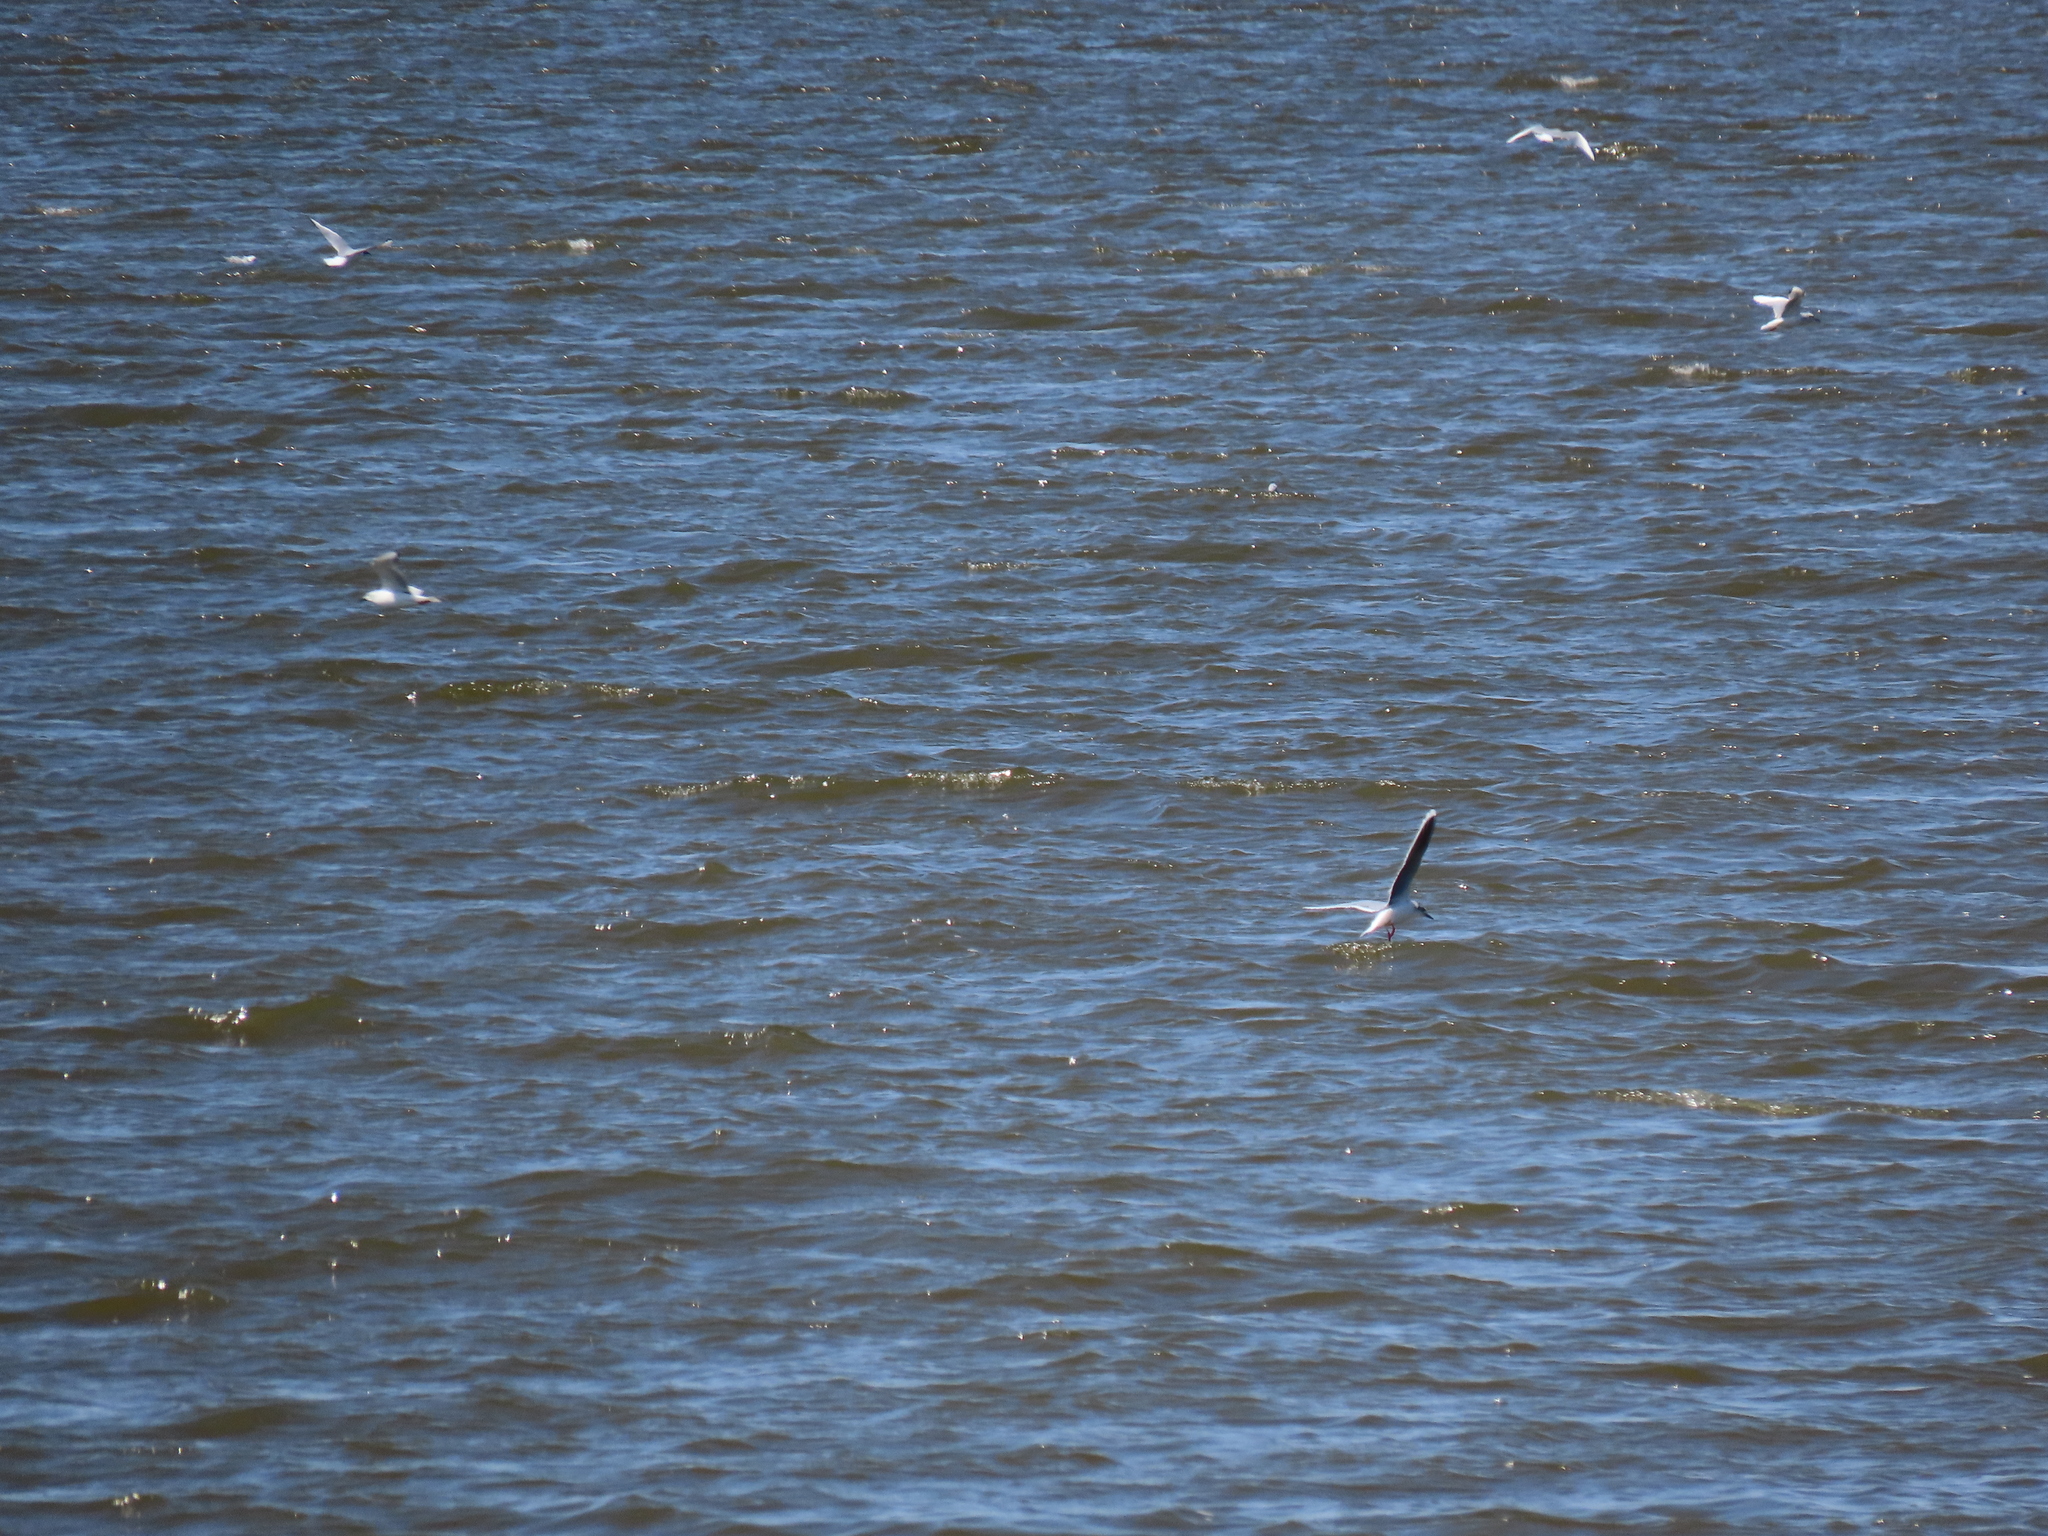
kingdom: Animalia
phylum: Chordata
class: Aves
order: Charadriiformes
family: Laridae
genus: Hydrocoloeus
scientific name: Hydrocoloeus minutus
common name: Little gull
